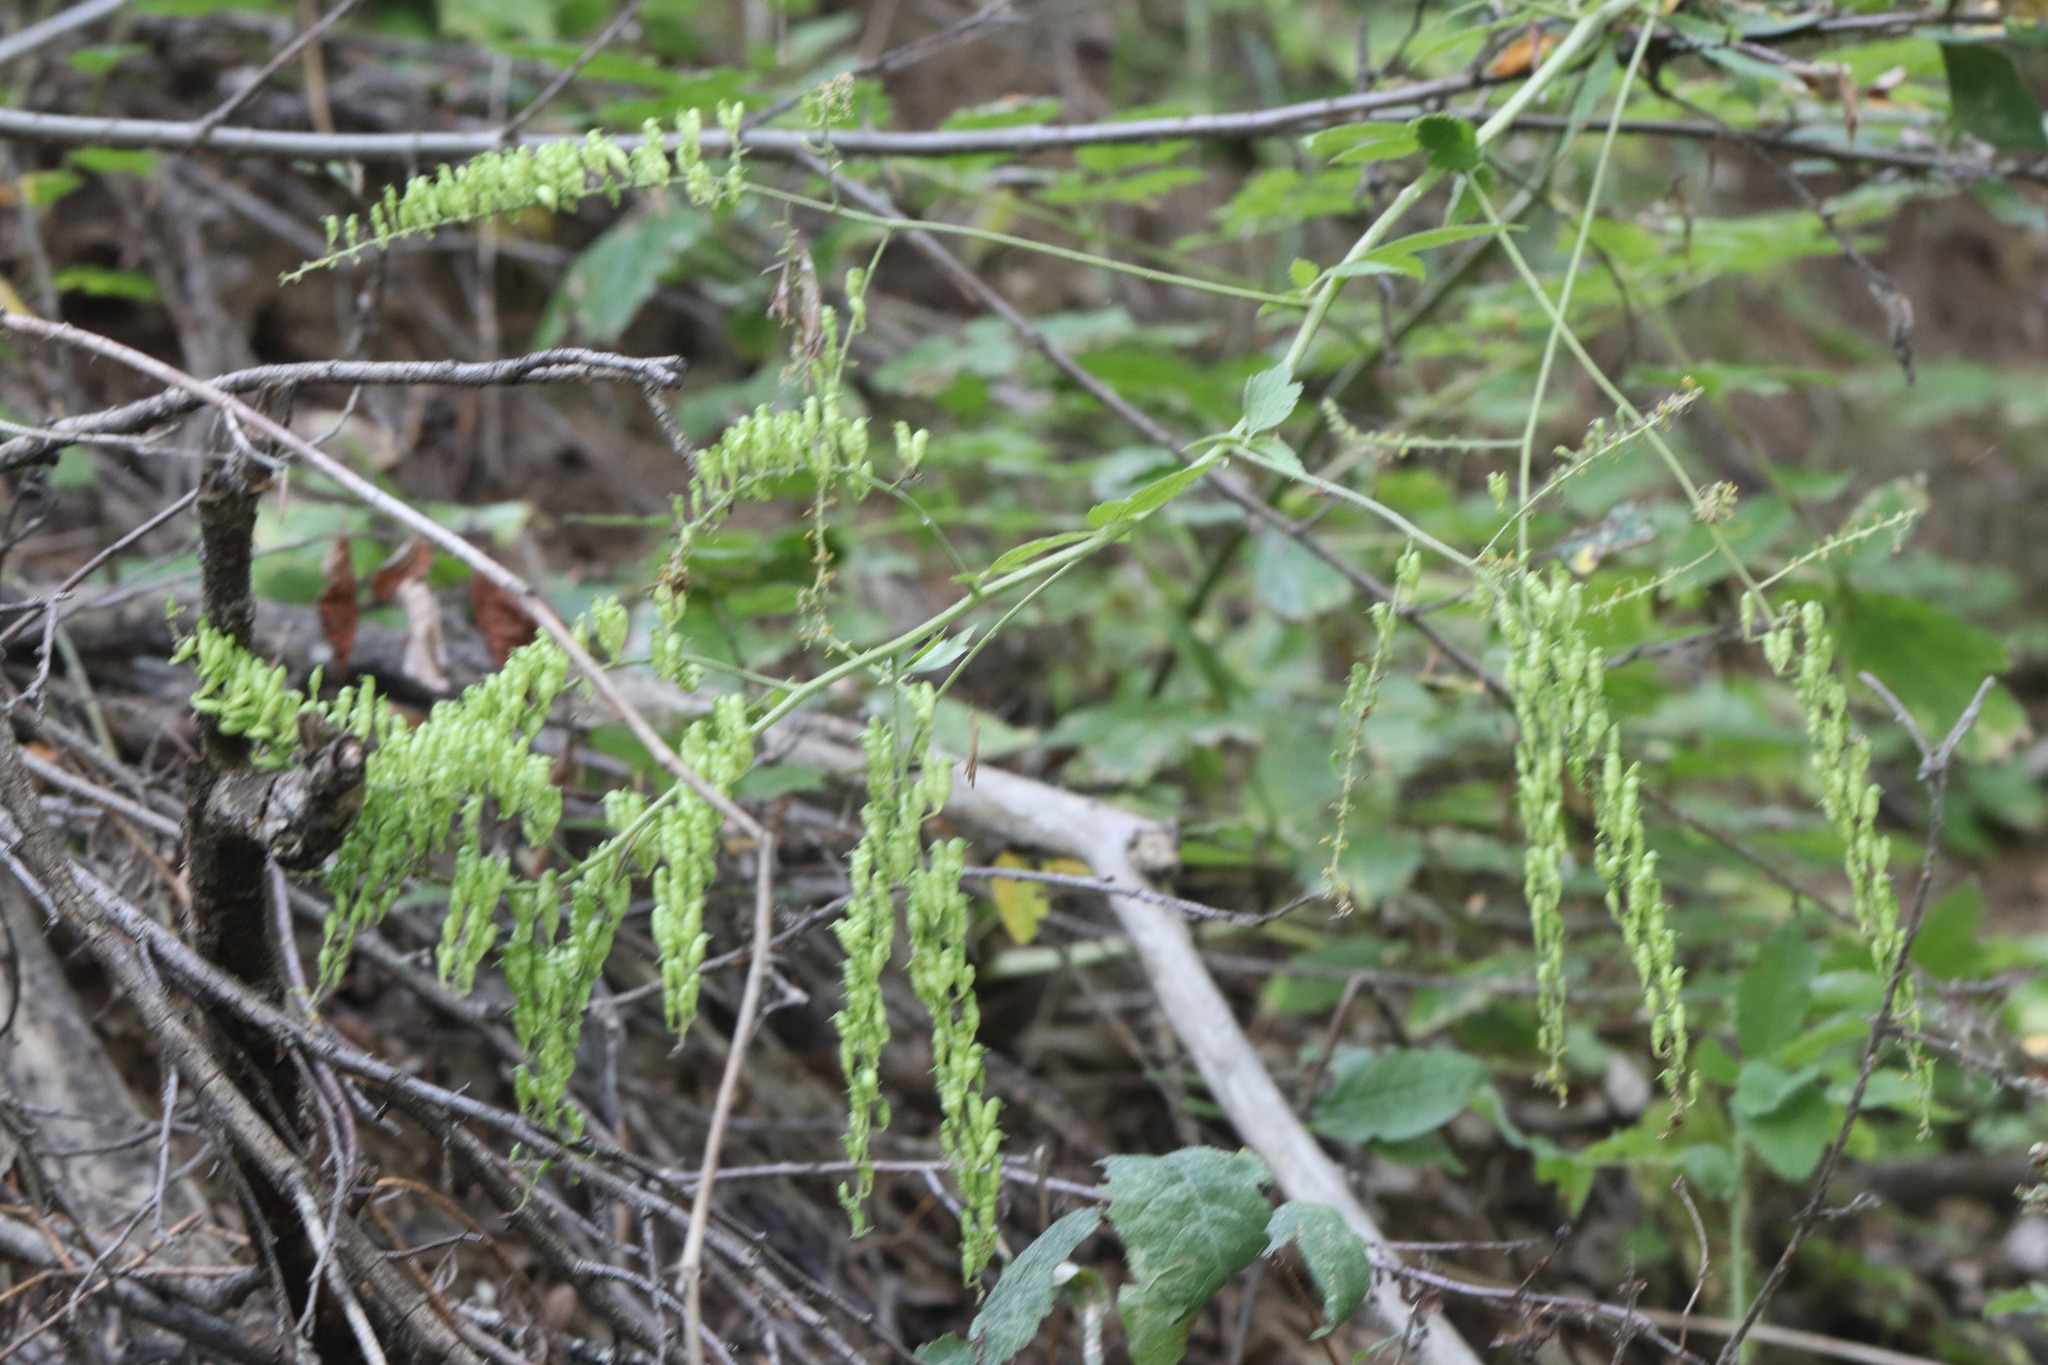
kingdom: Plantae
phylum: Tracheophyta
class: Magnoliopsida
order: Ranunculales
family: Ranunculaceae
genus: Actaea
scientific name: Actaea cimicifuga
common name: Chinese cimicifuga
